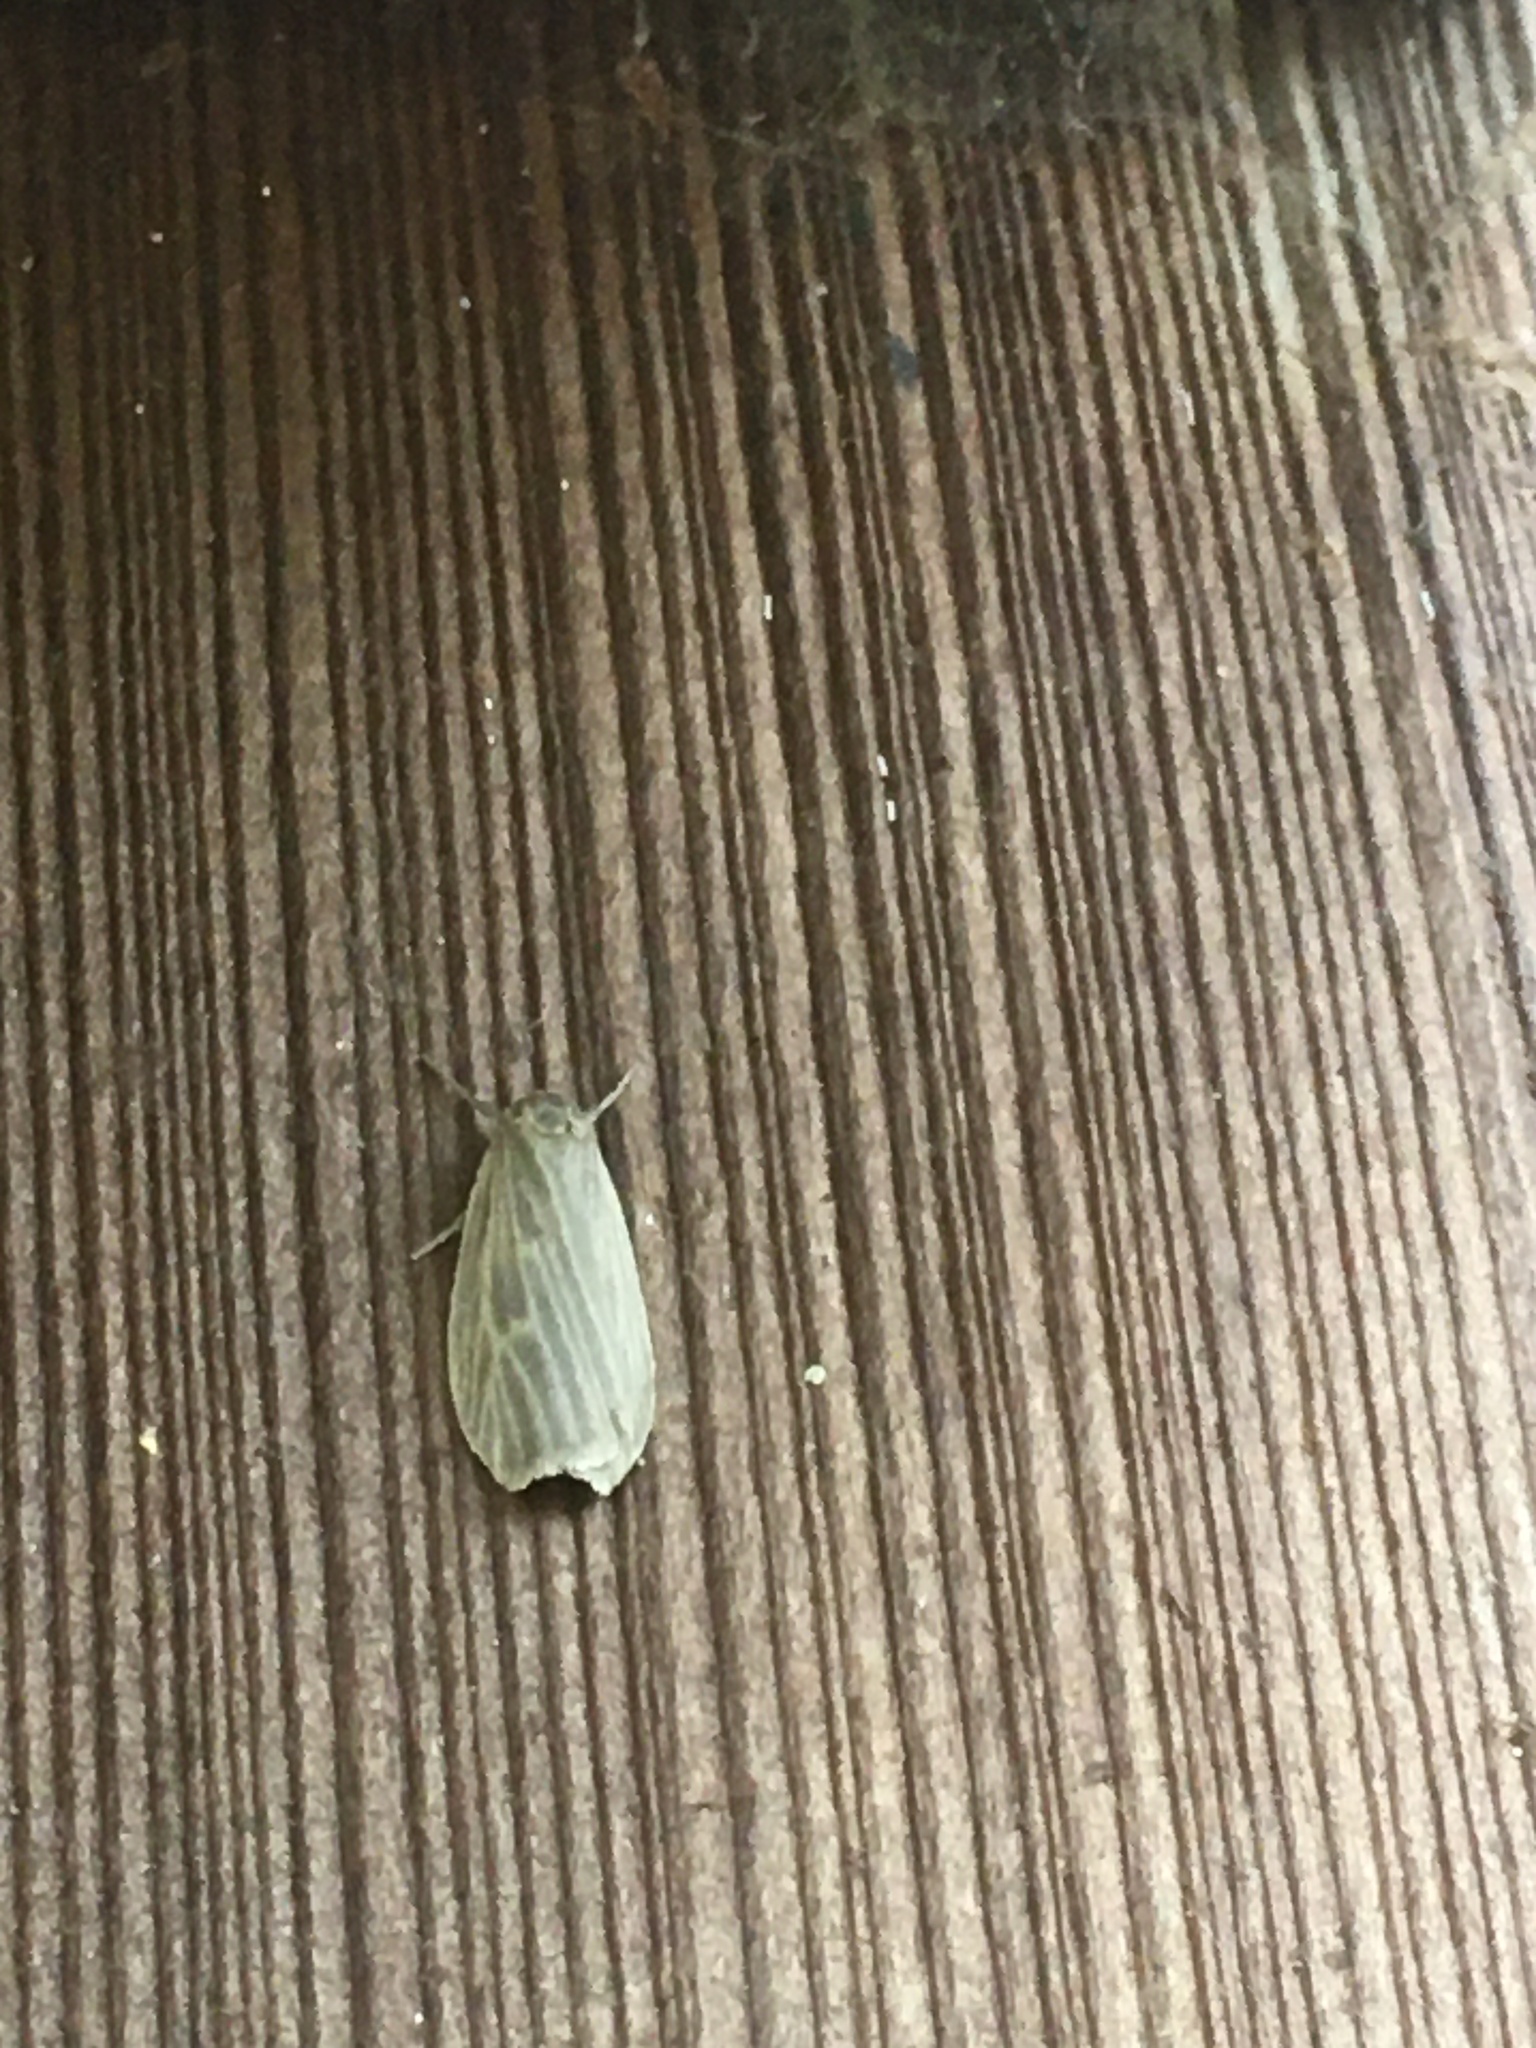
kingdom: Animalia
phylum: Arthropoda
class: Insecta
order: Lepidoptera
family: Erebidae
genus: Crambidia
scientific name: Crambidia pallida
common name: Pale lichen moth
